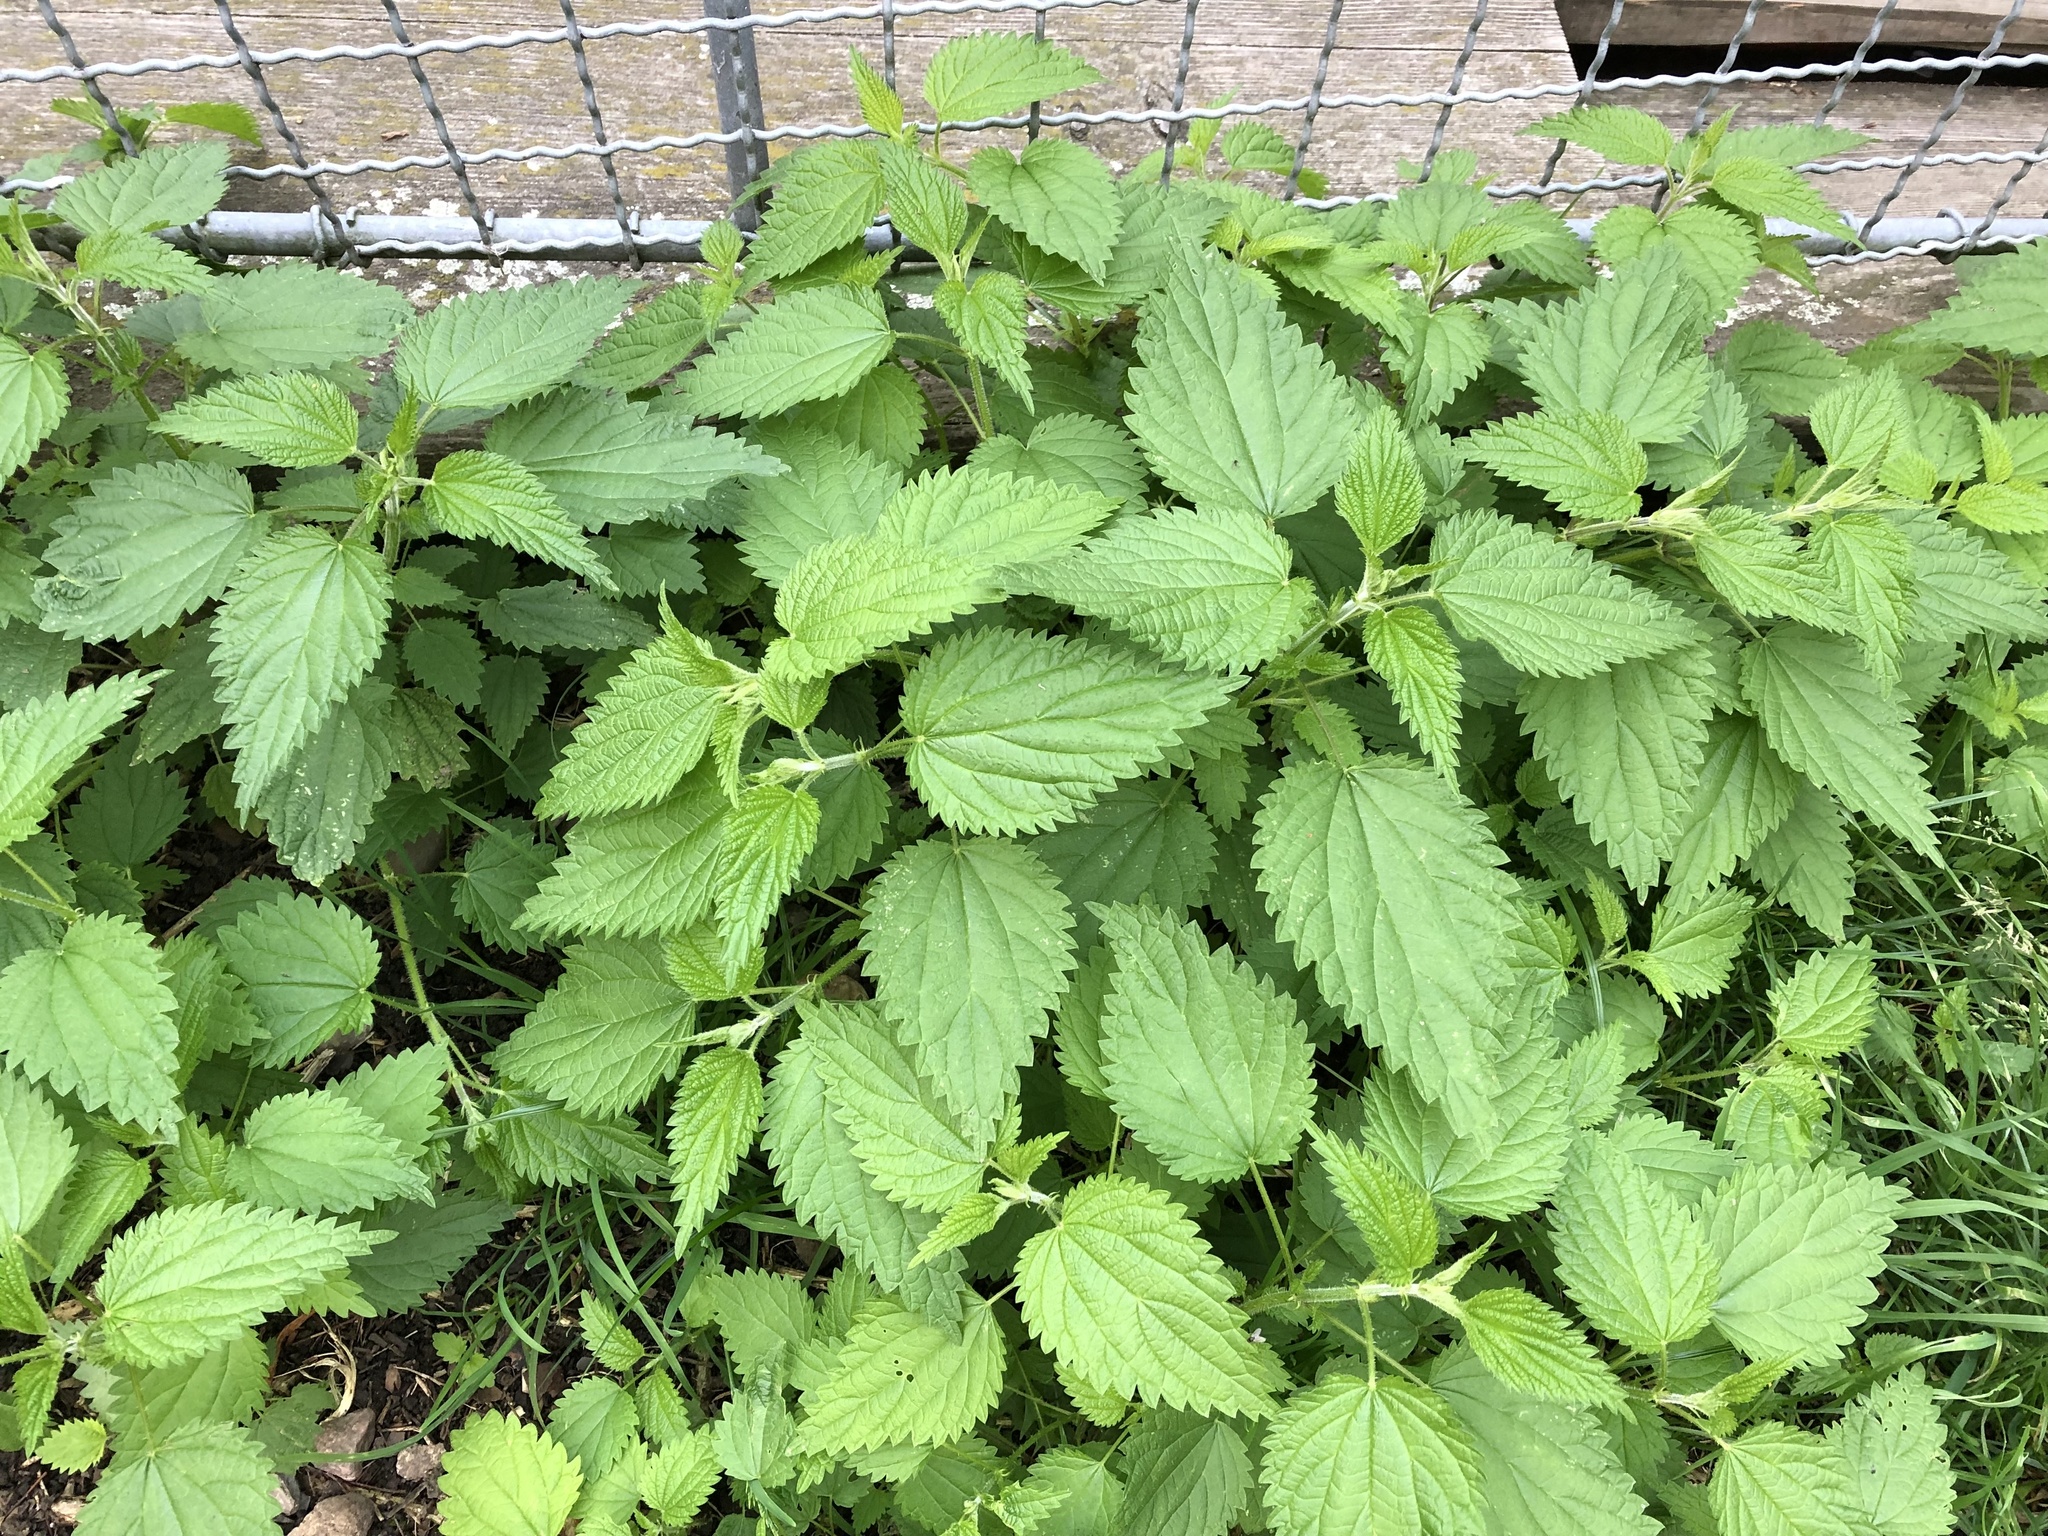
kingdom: Plantae
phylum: Tracheophyta
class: Magnoliopsida
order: Rosales
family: Urticaceae
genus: Urtica
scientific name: Urtica dioica
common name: Common nettle
